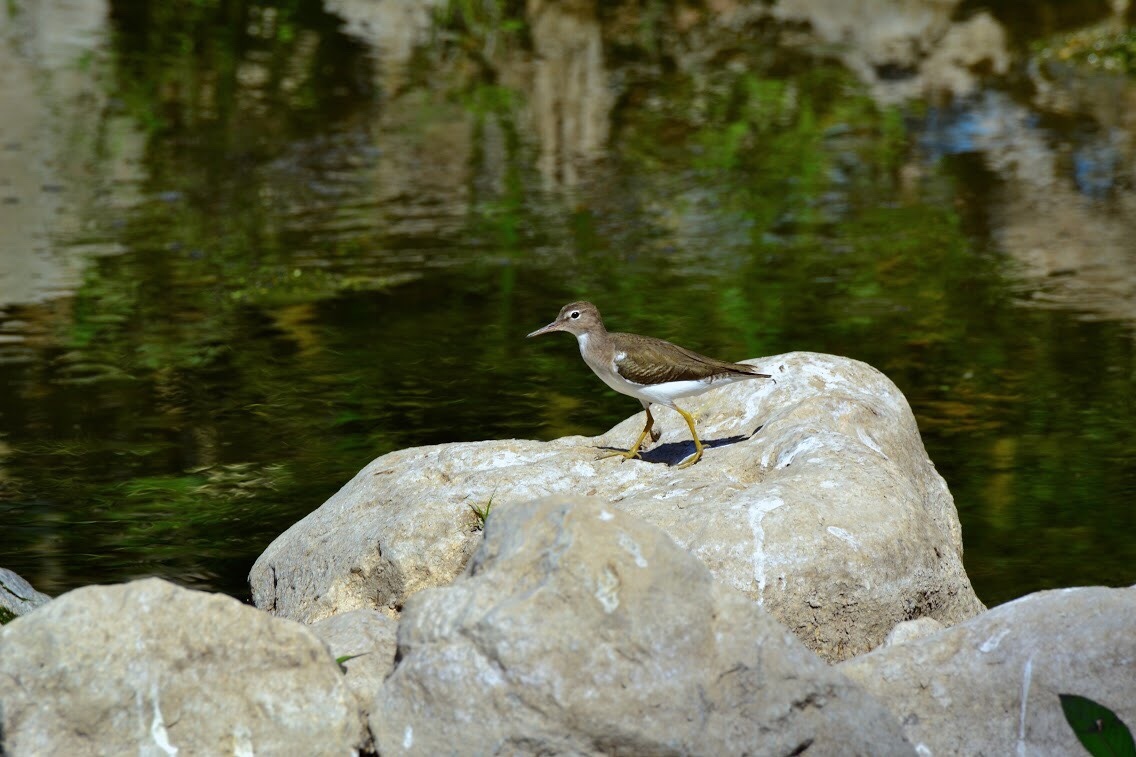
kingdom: Animalia
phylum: Chordata
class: Aves
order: Charadriiformes
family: Scolopacidae
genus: Actitis
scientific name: Actitis macularius
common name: Spotted sandpiper
